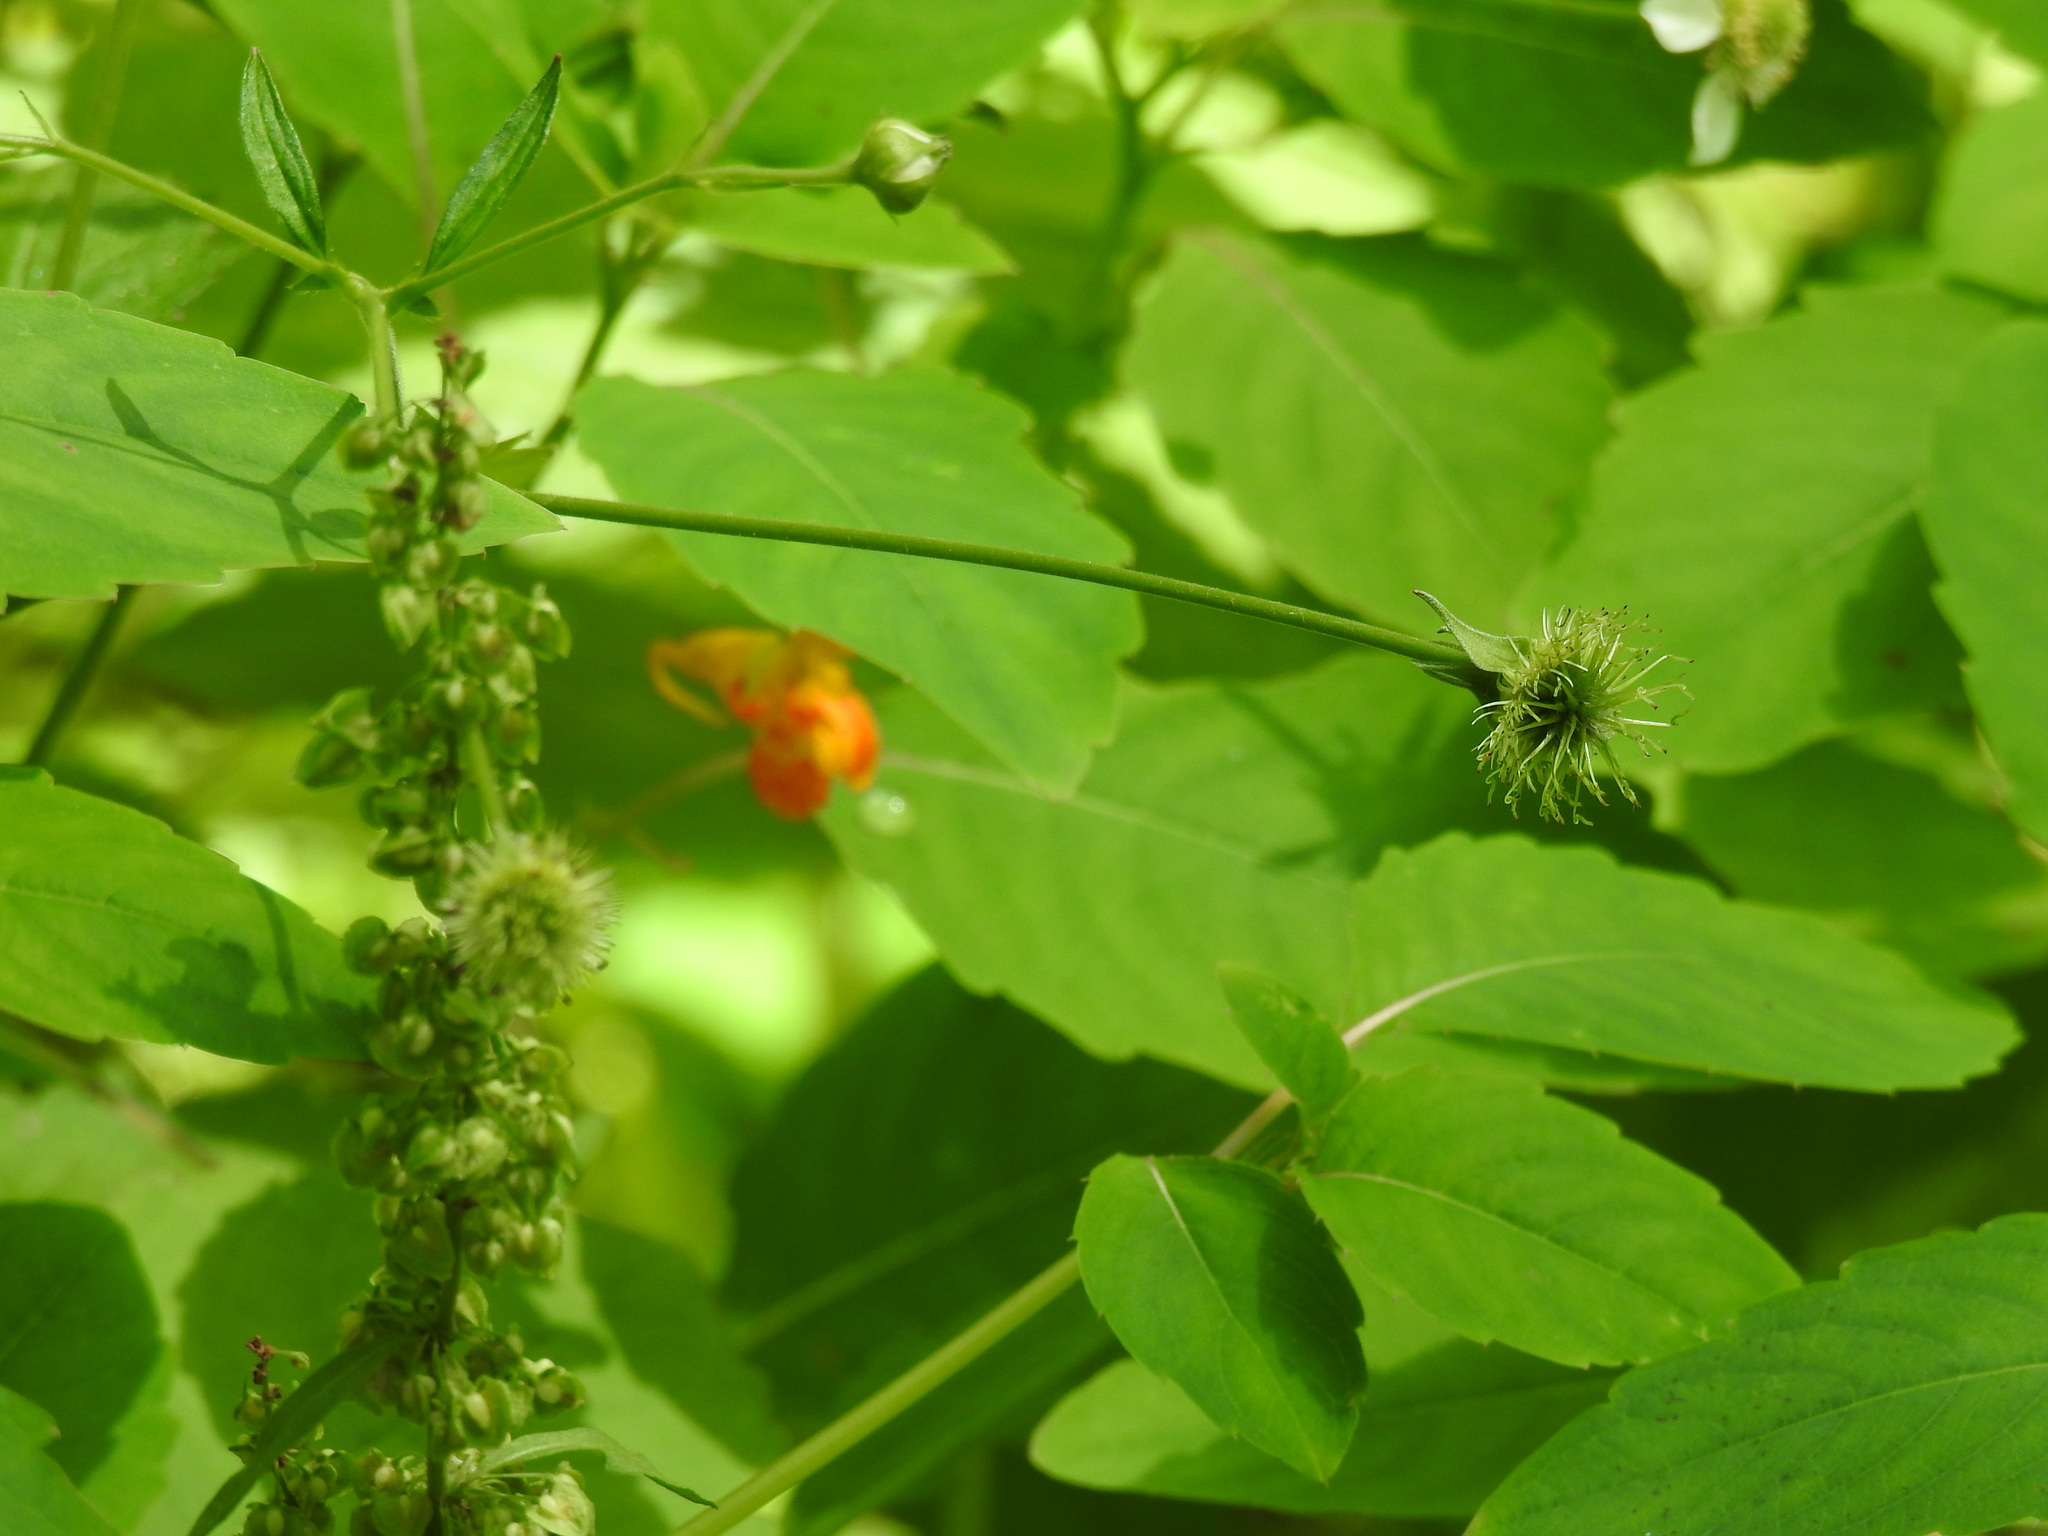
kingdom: Plantae
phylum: Tracheophyta
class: Magnoliopsida
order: Ericales
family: Balsaminaceae
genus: Impatiens
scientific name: Impatiens capensis
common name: Orange balsam
